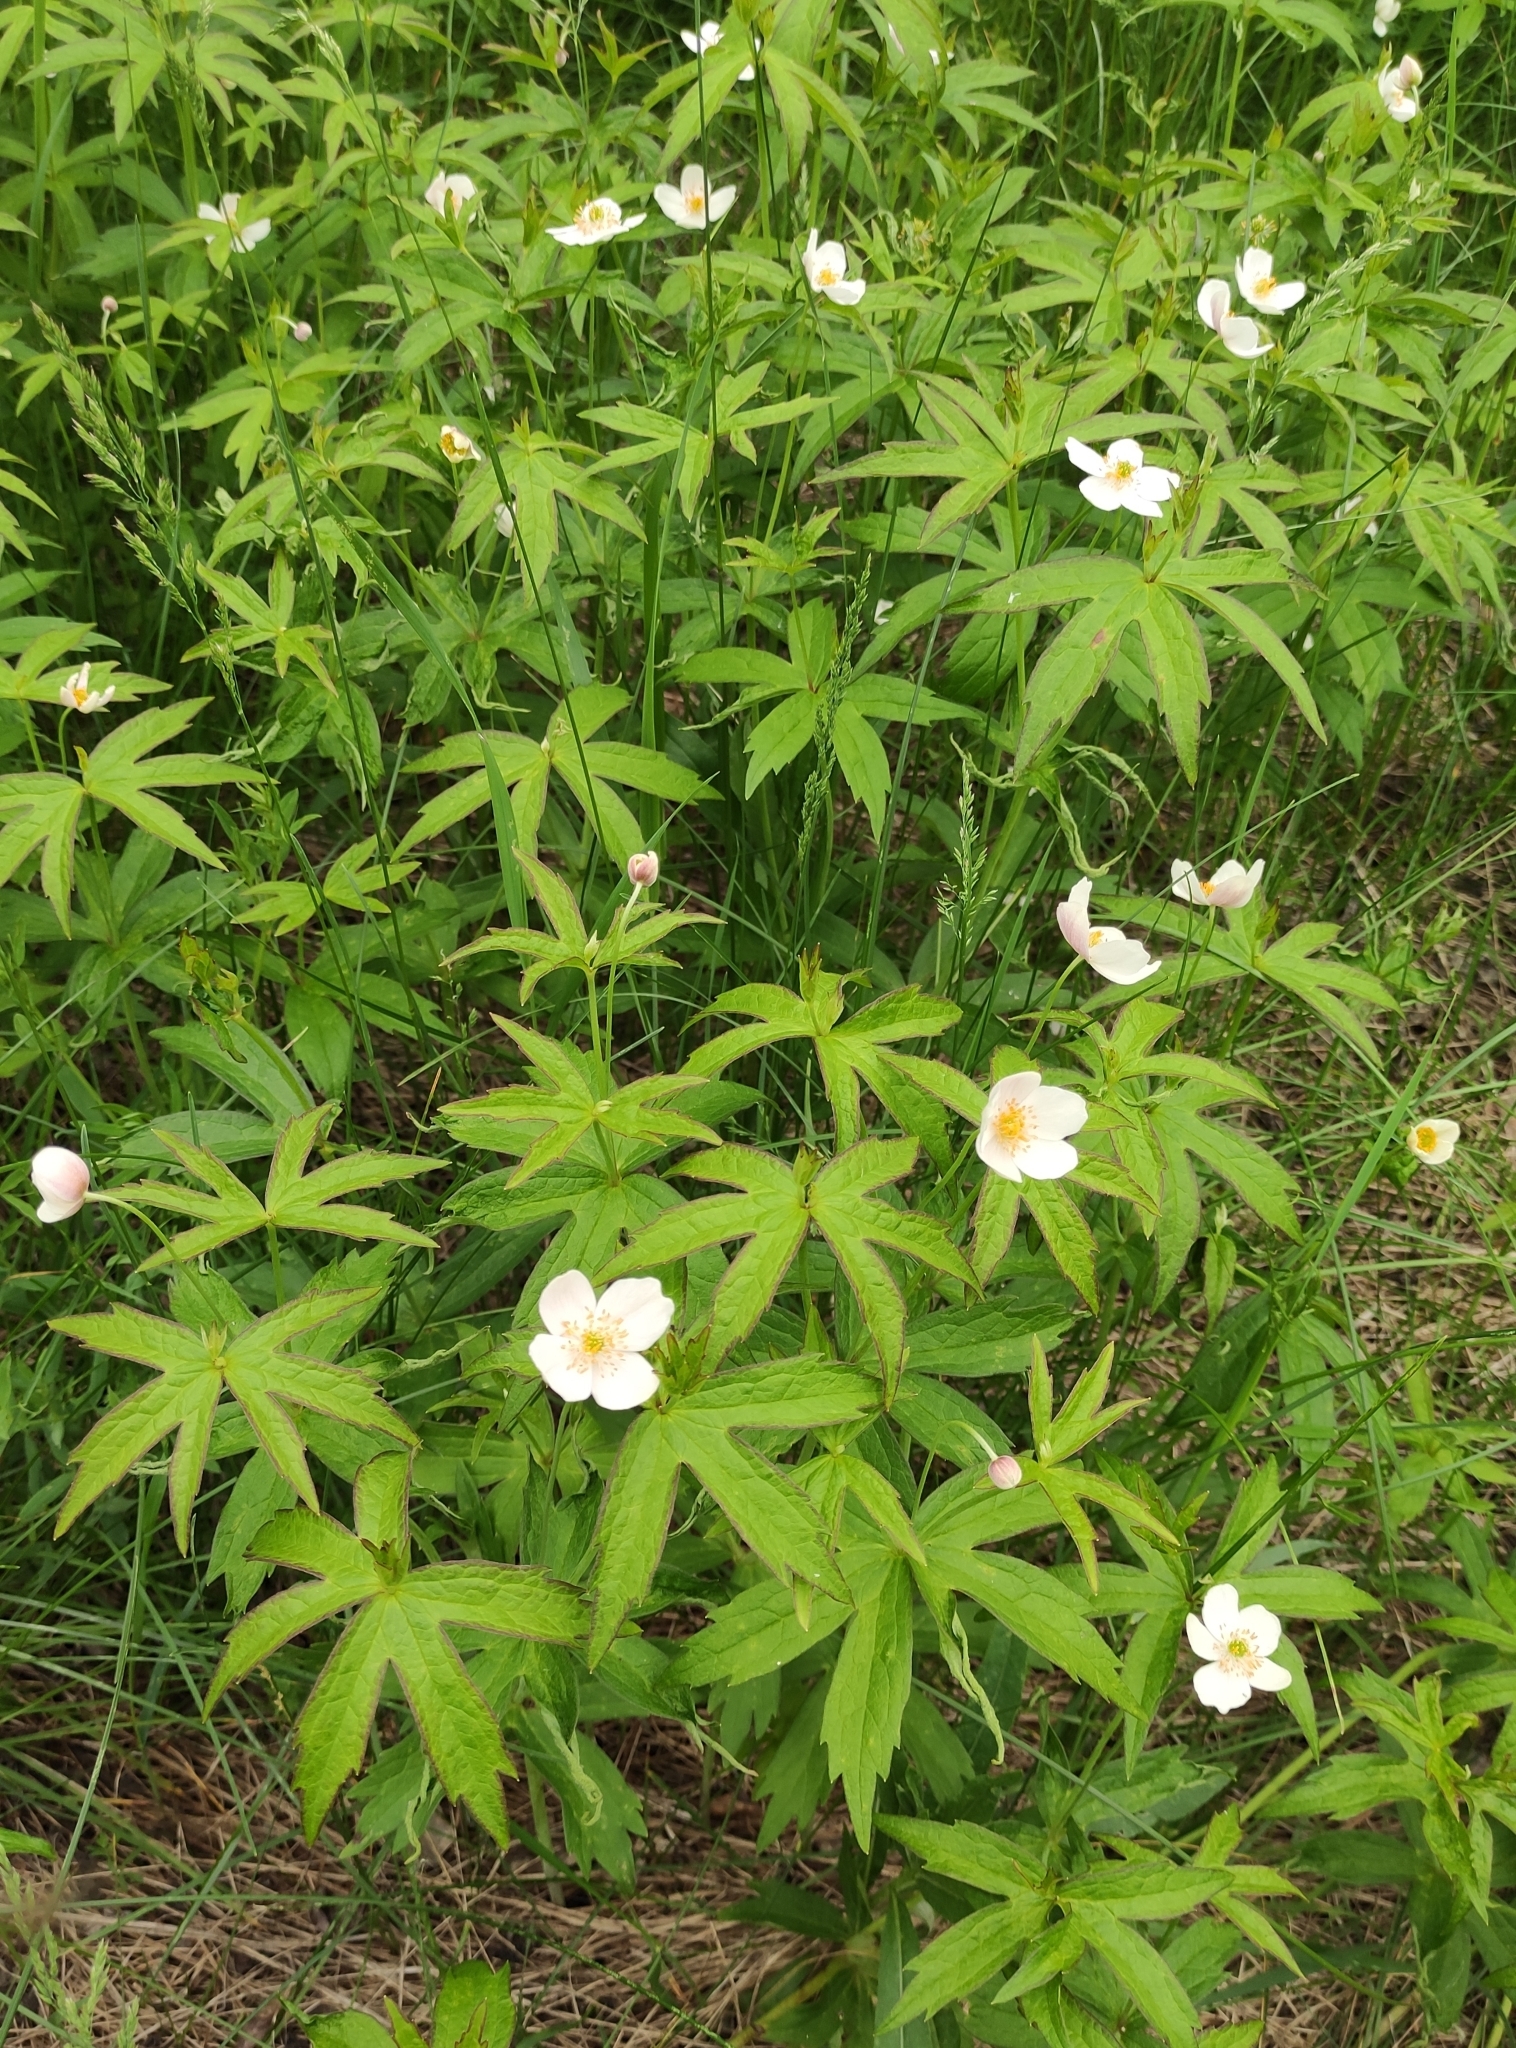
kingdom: Plantae
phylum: Tracheophyta
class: Magnoliopsida
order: Ranunculales
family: Ranunculaceae
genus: Anemonastrum
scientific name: Anemonastrum dichotomum
